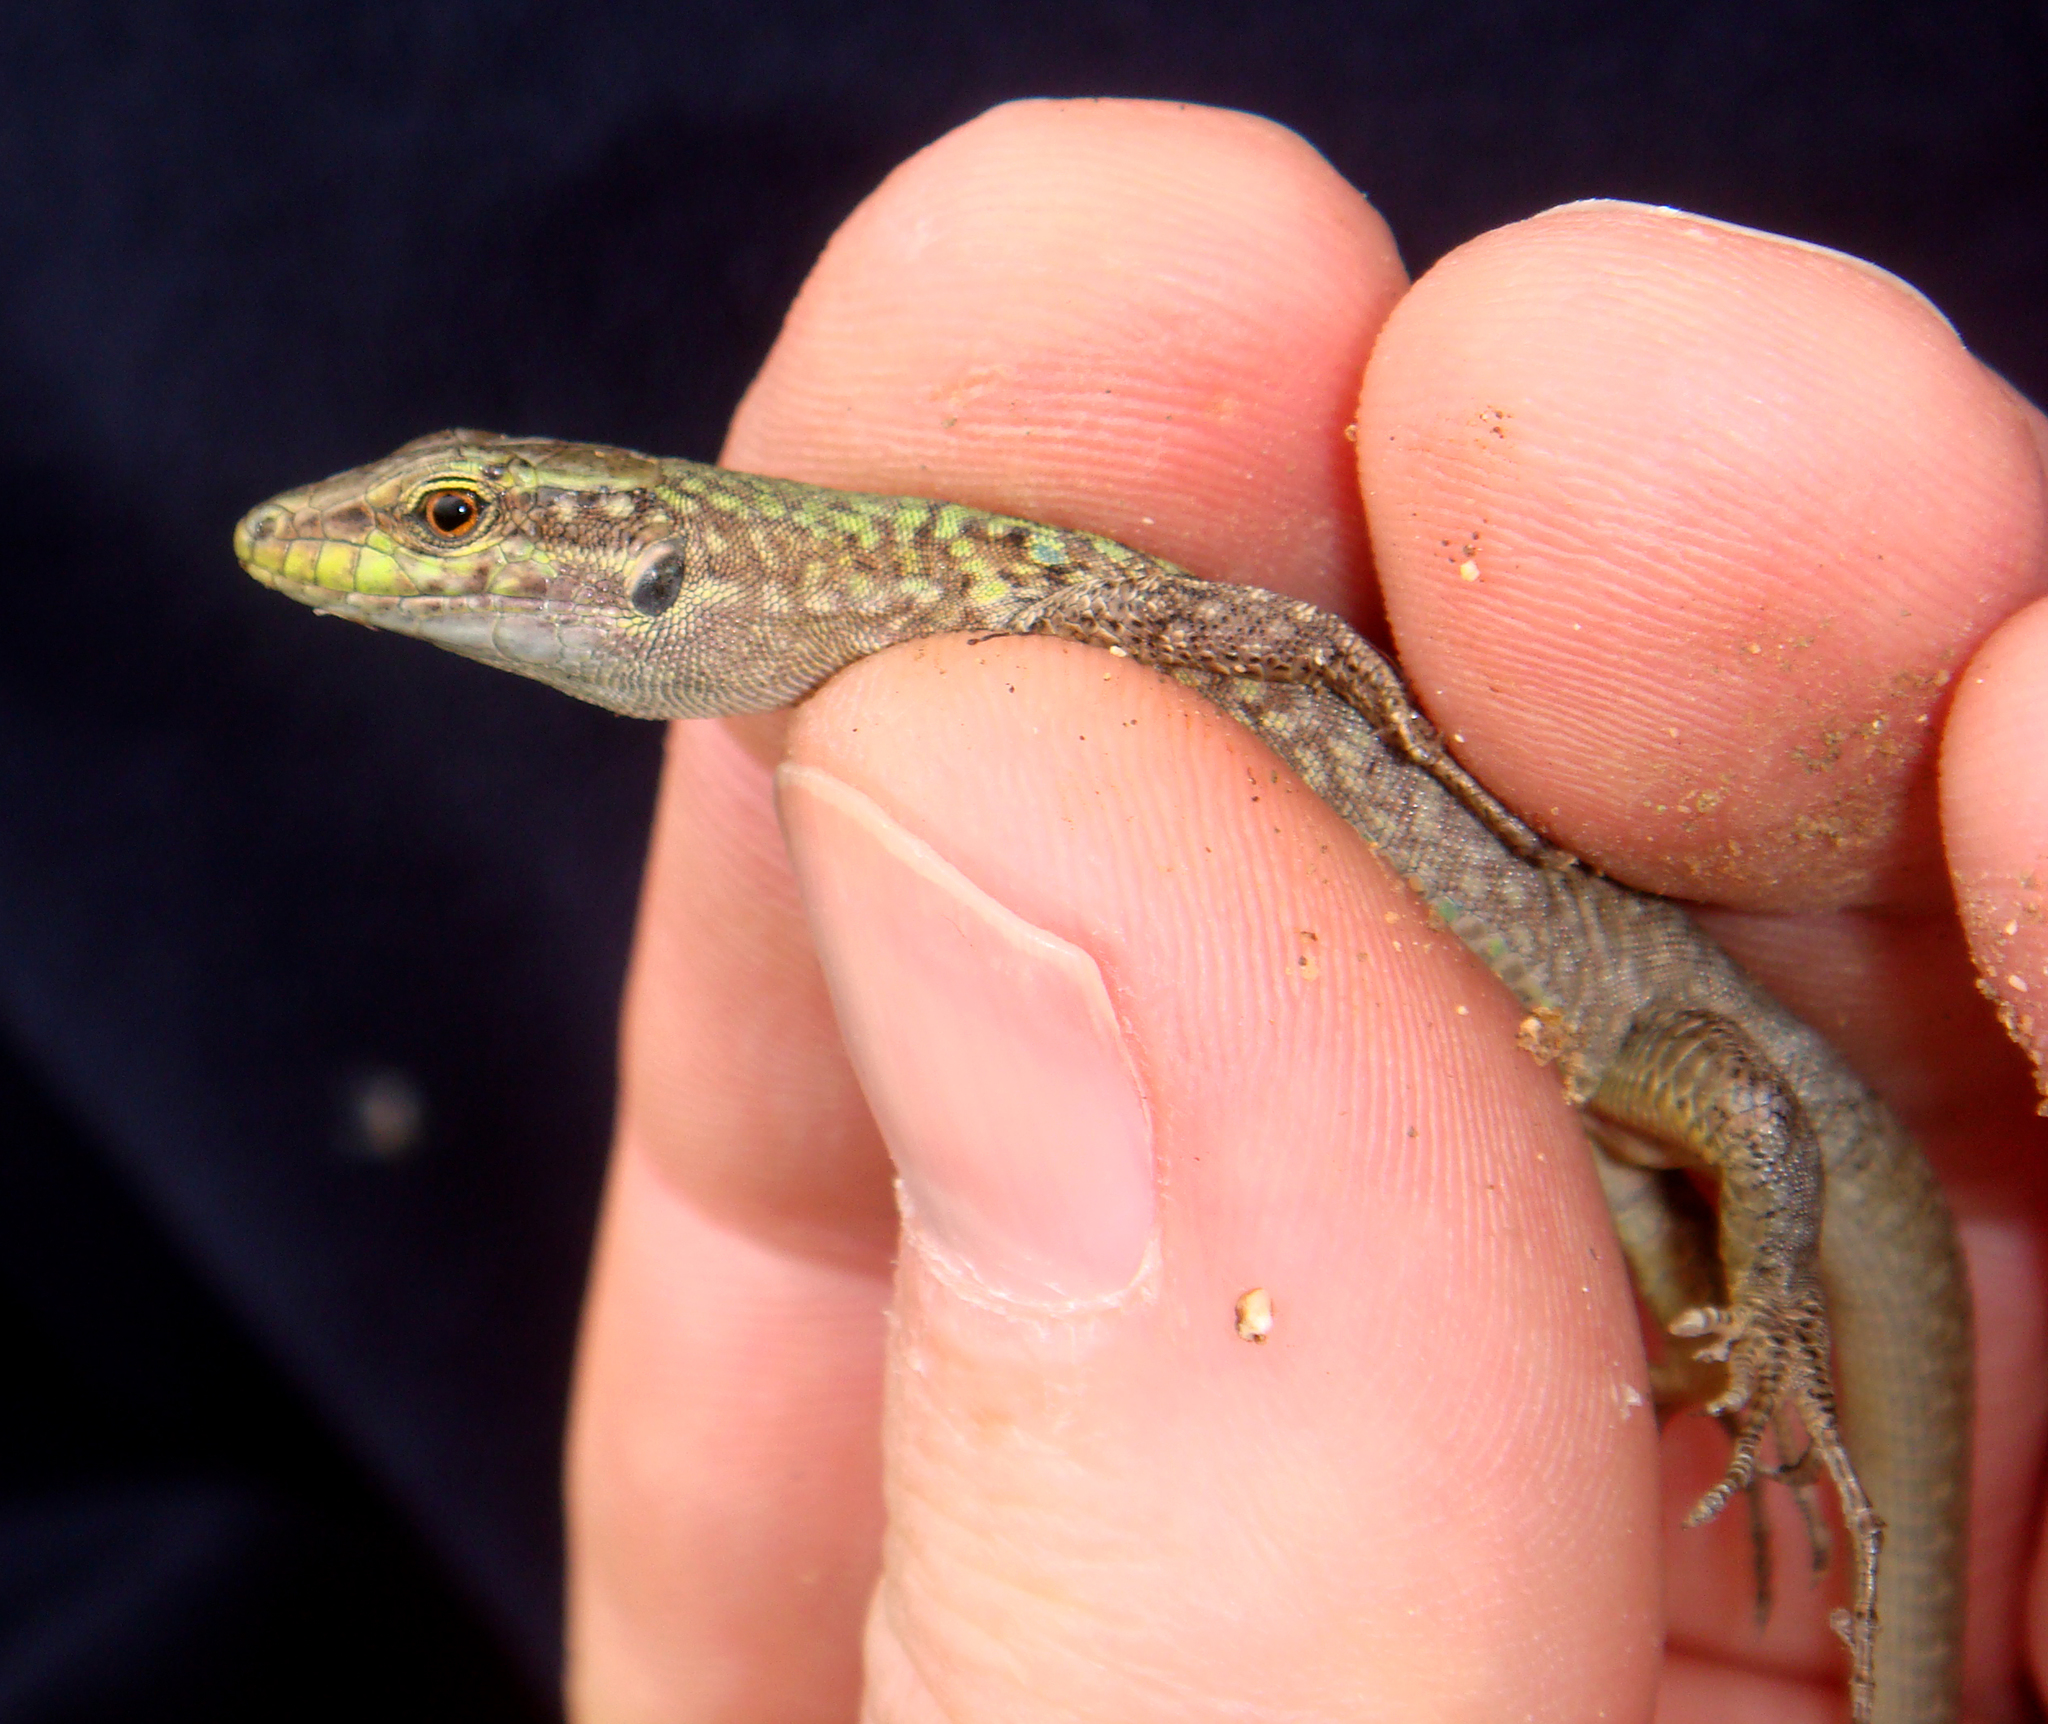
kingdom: Animalia
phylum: Chordata
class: Squamata
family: Lacertidae
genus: Podarcis
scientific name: Podarcis siculus
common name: Italian wall lizard
